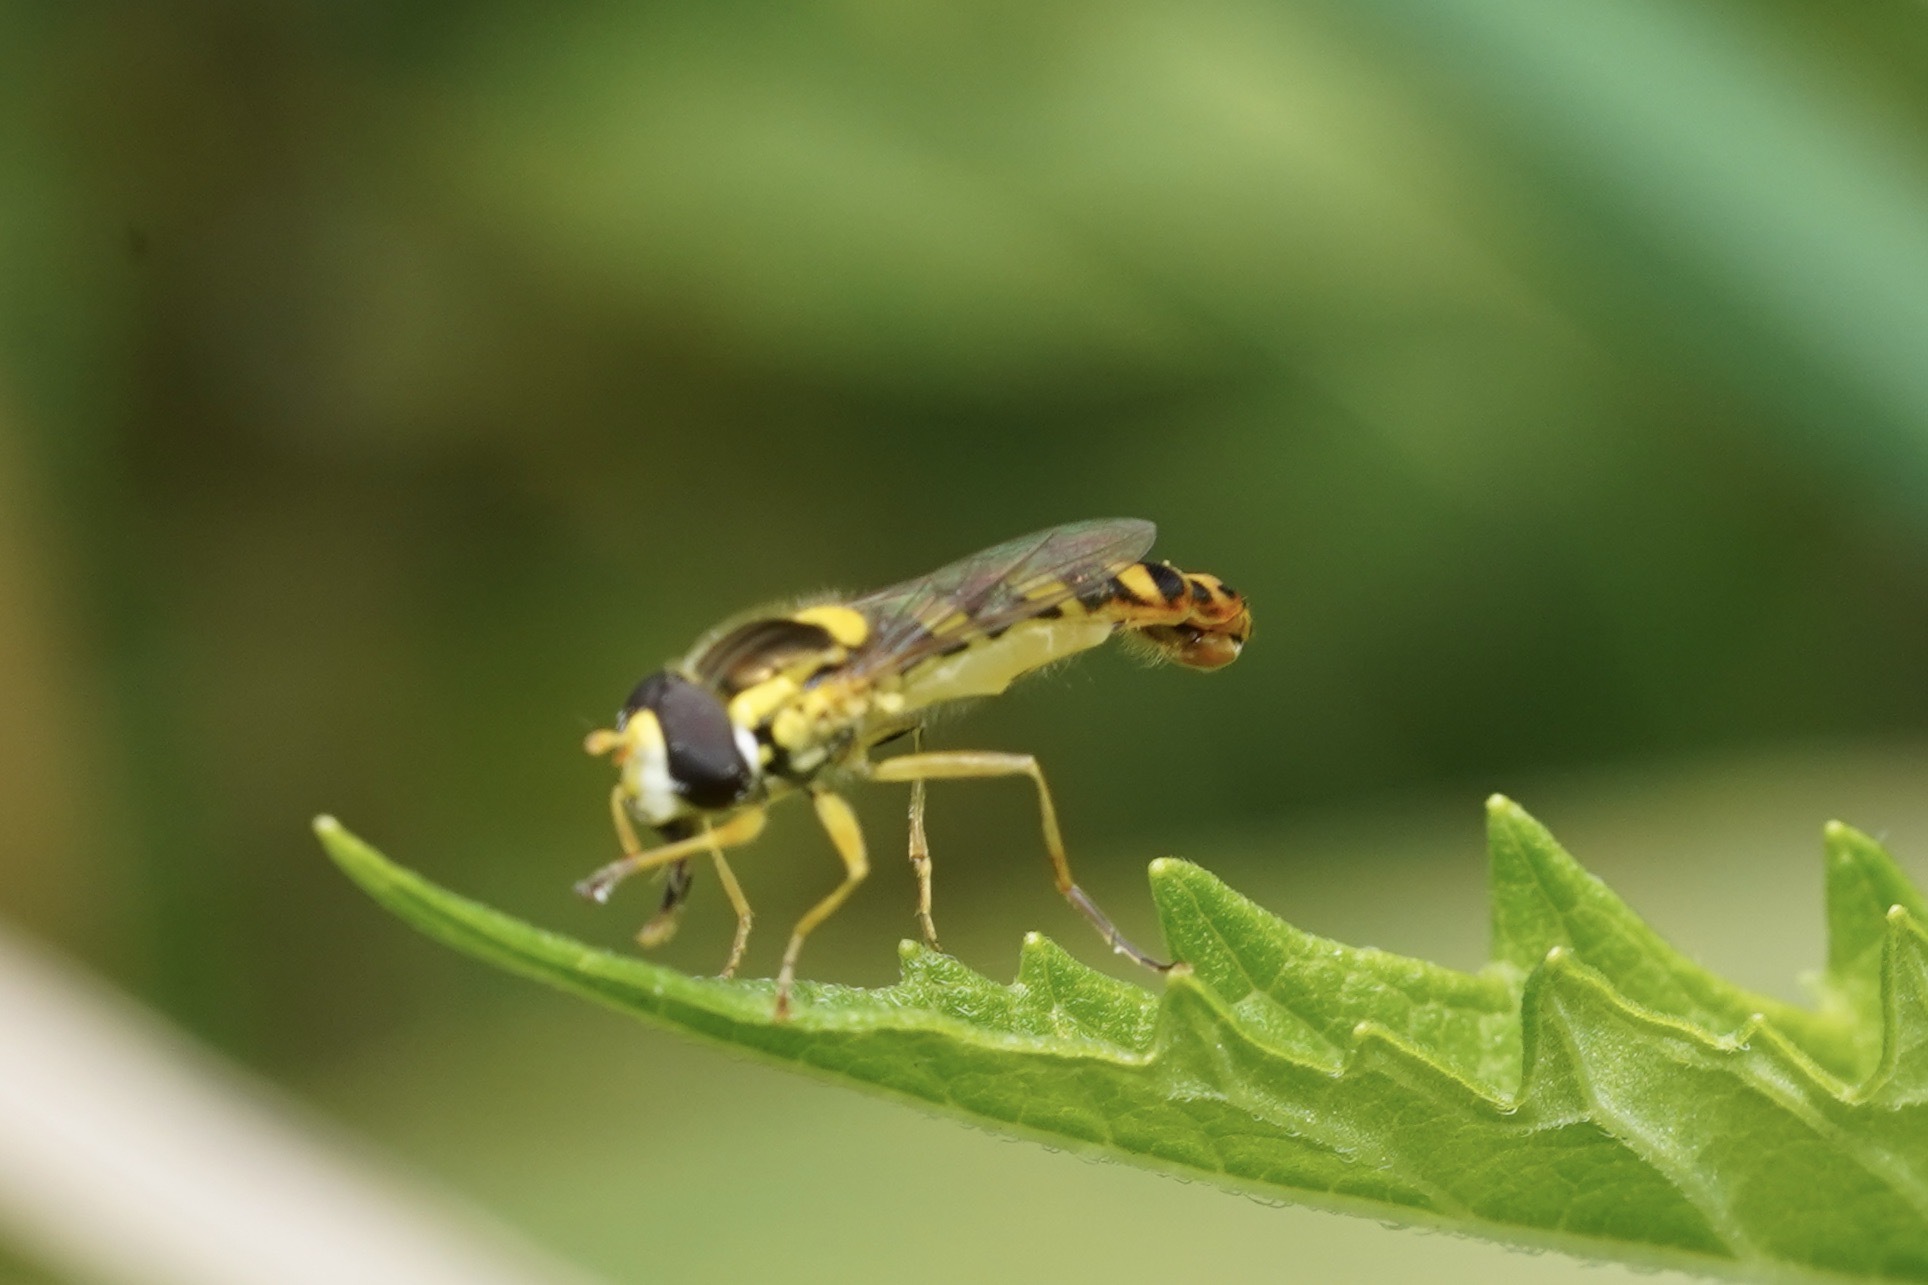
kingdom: Animalia
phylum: Arthropoda
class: Insecta
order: Diptera
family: Syrphidae
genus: Sphaerophoria
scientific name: Sphaerophoria scripta
